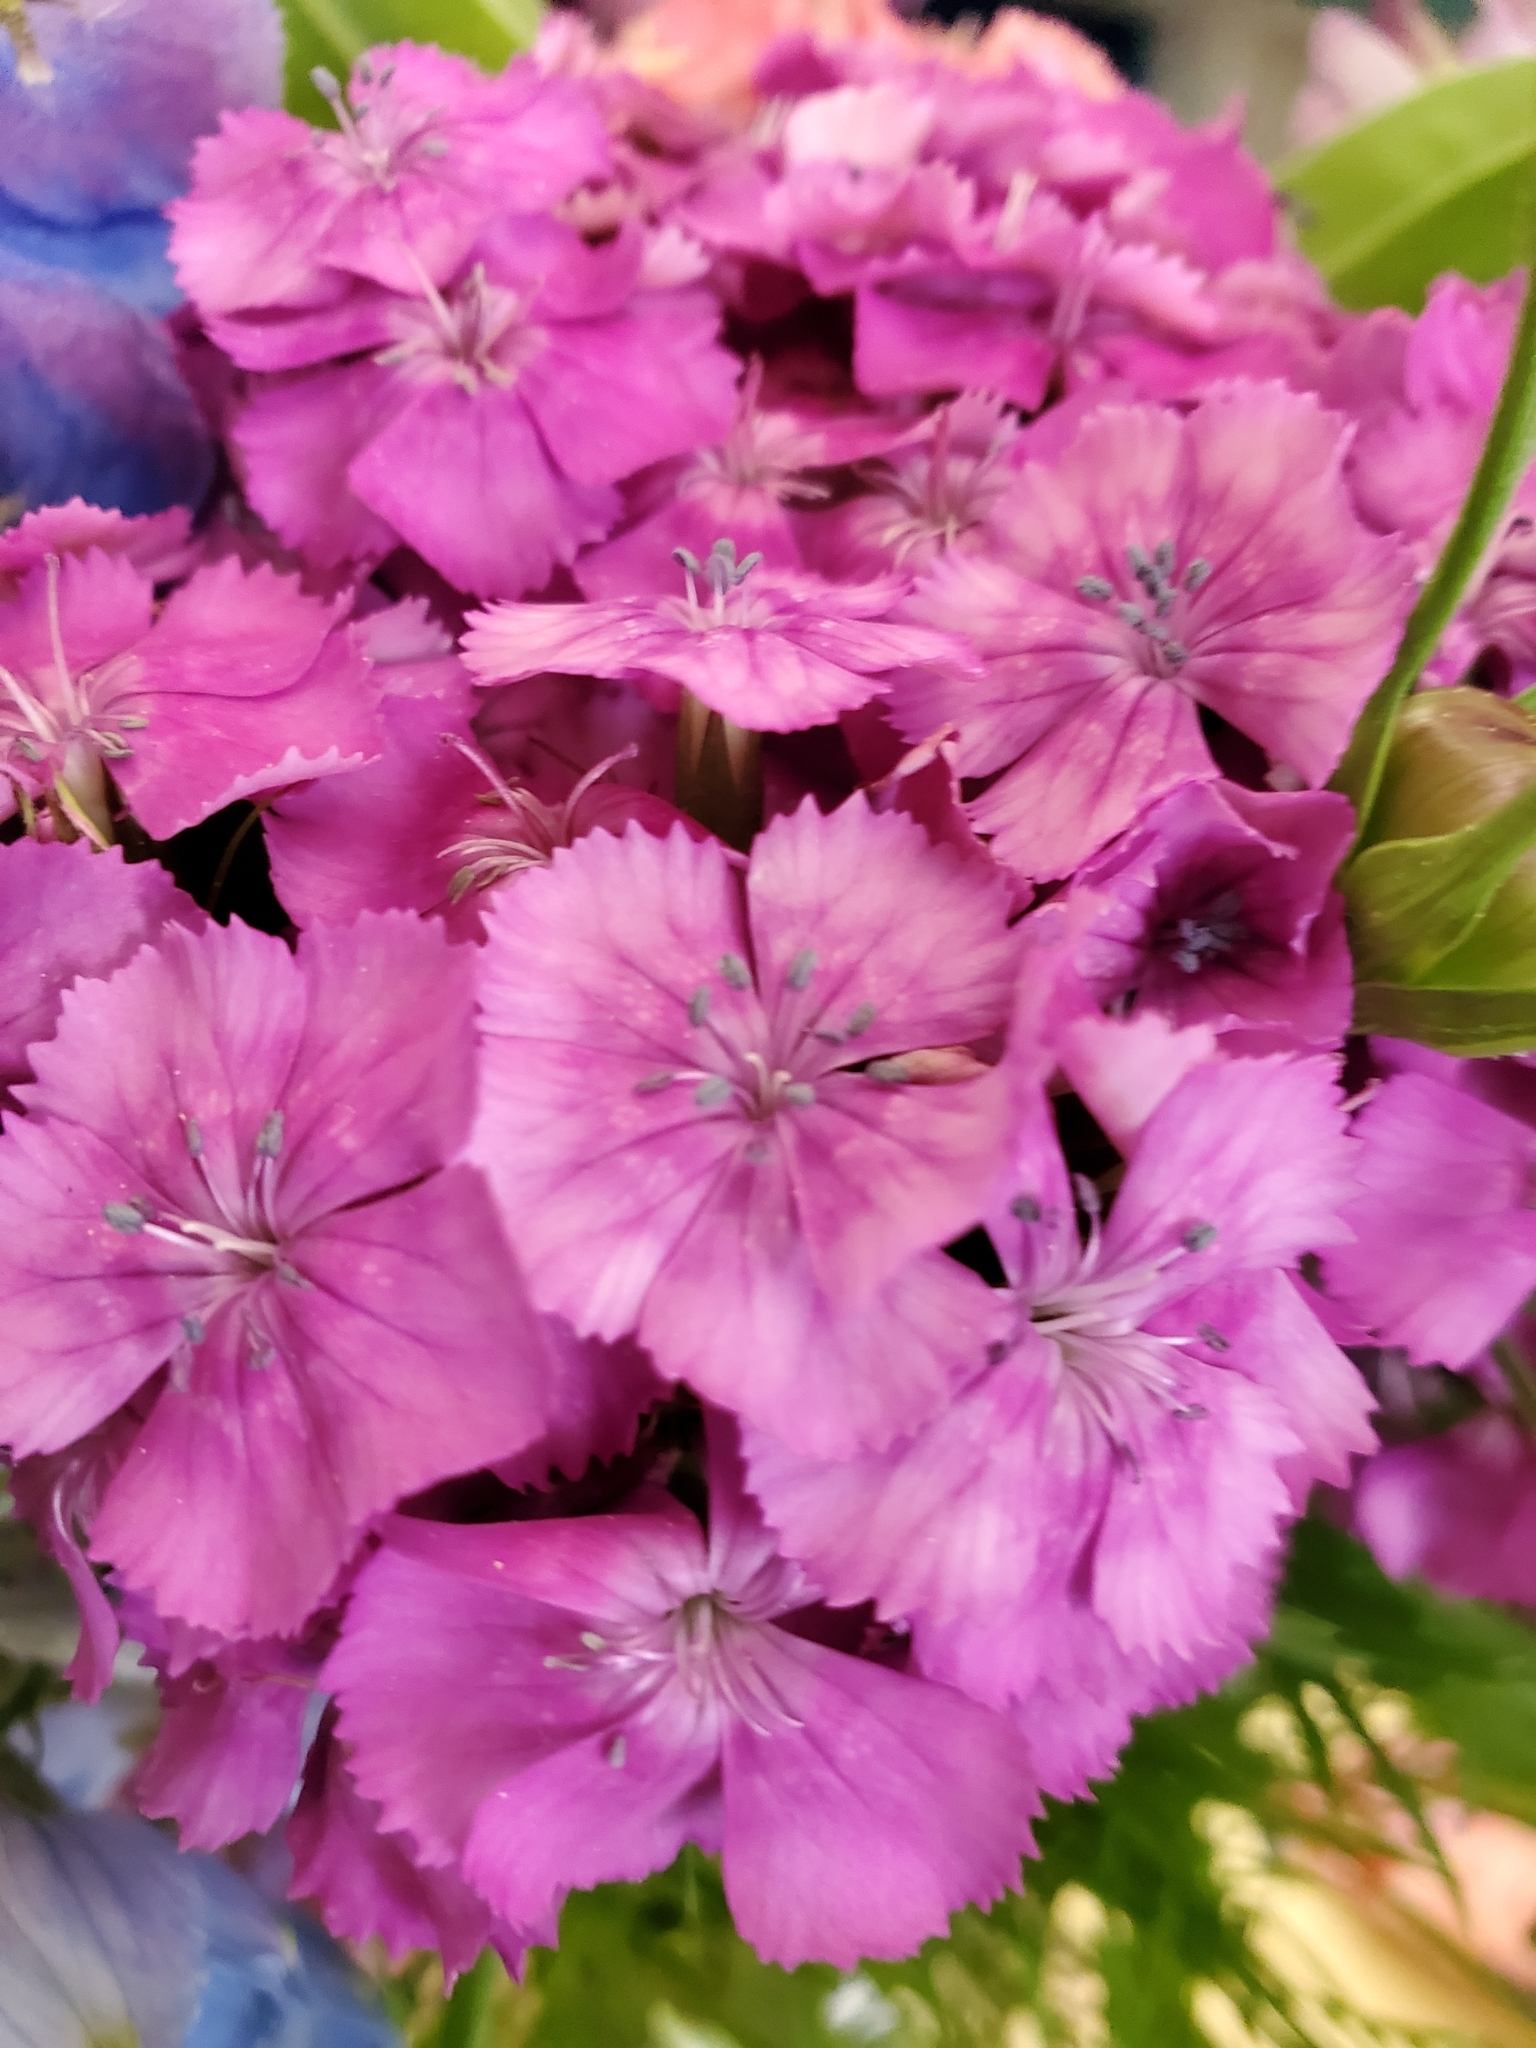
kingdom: Plantae
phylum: Tracheophyta
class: Magnoliopsida
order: Caryophyllales
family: Caryophyllaceae
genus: Dianthus
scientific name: Dianthus barbatus
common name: Sweet-william
